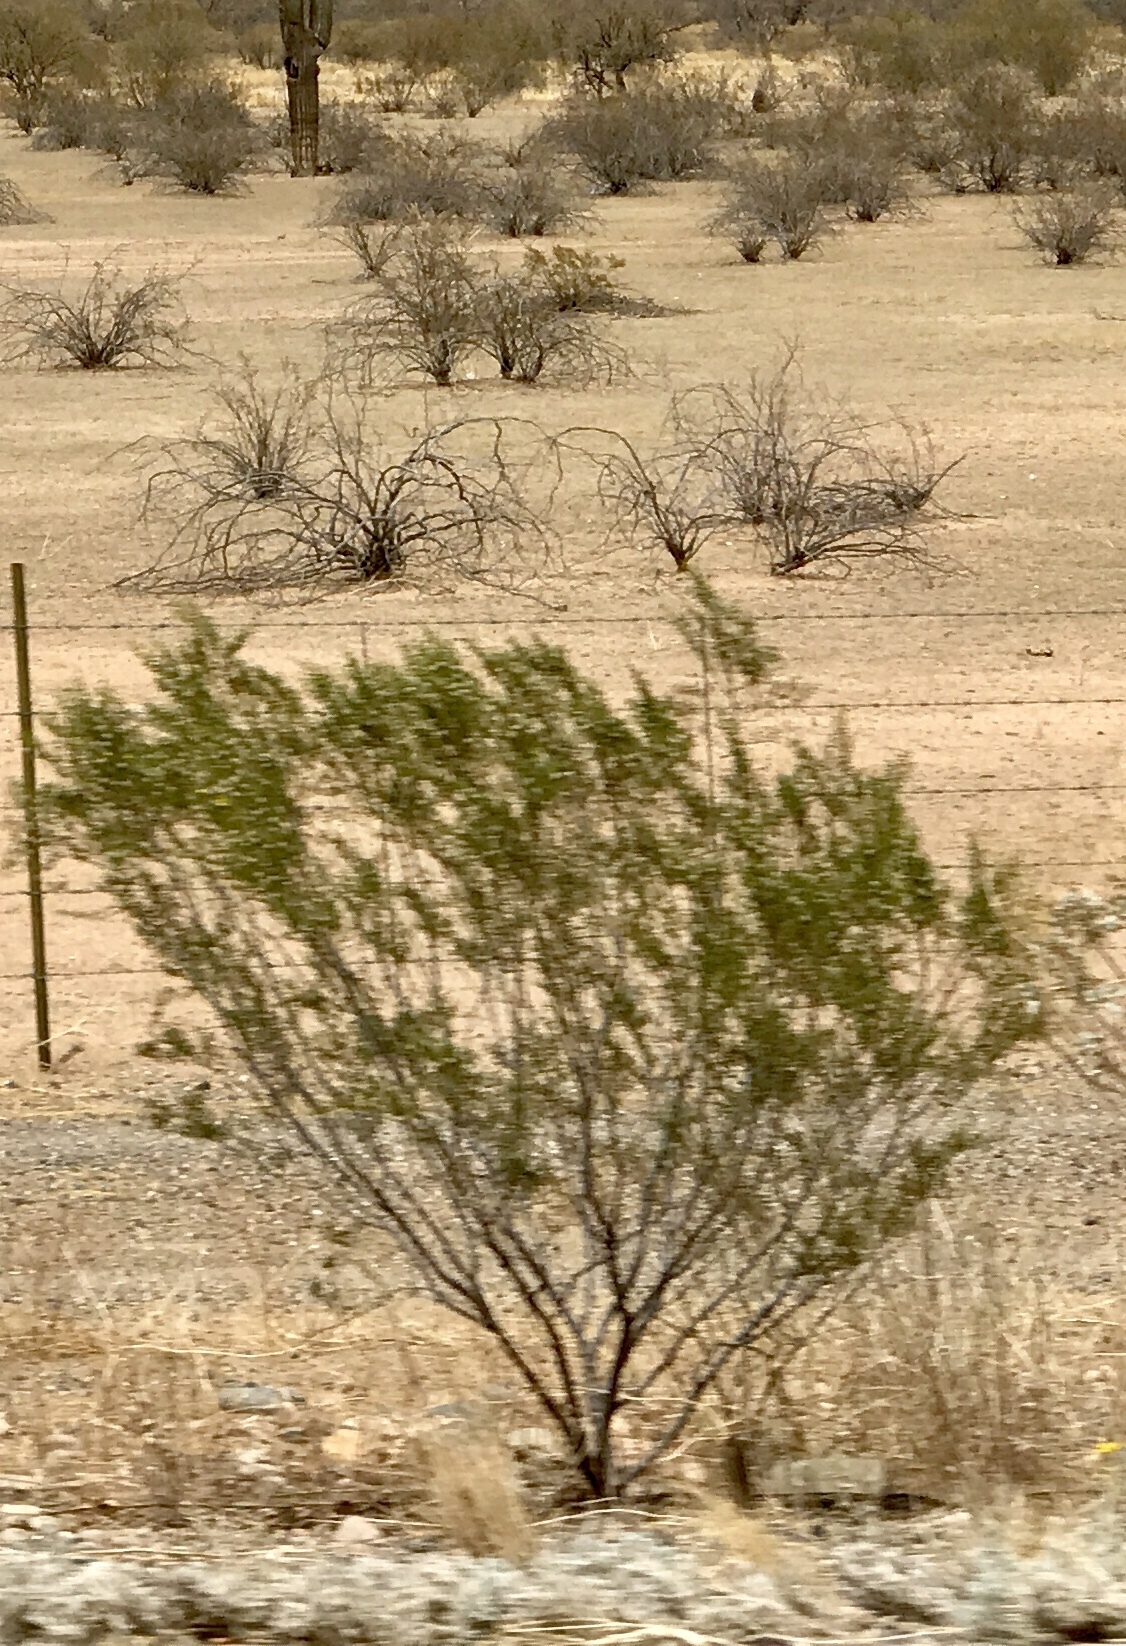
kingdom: Plantae
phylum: Tracheophyta
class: Magnoliopsida
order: Zygophyllales
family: Zygophyllaceae
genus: Larrea
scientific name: Larrea tridentata
